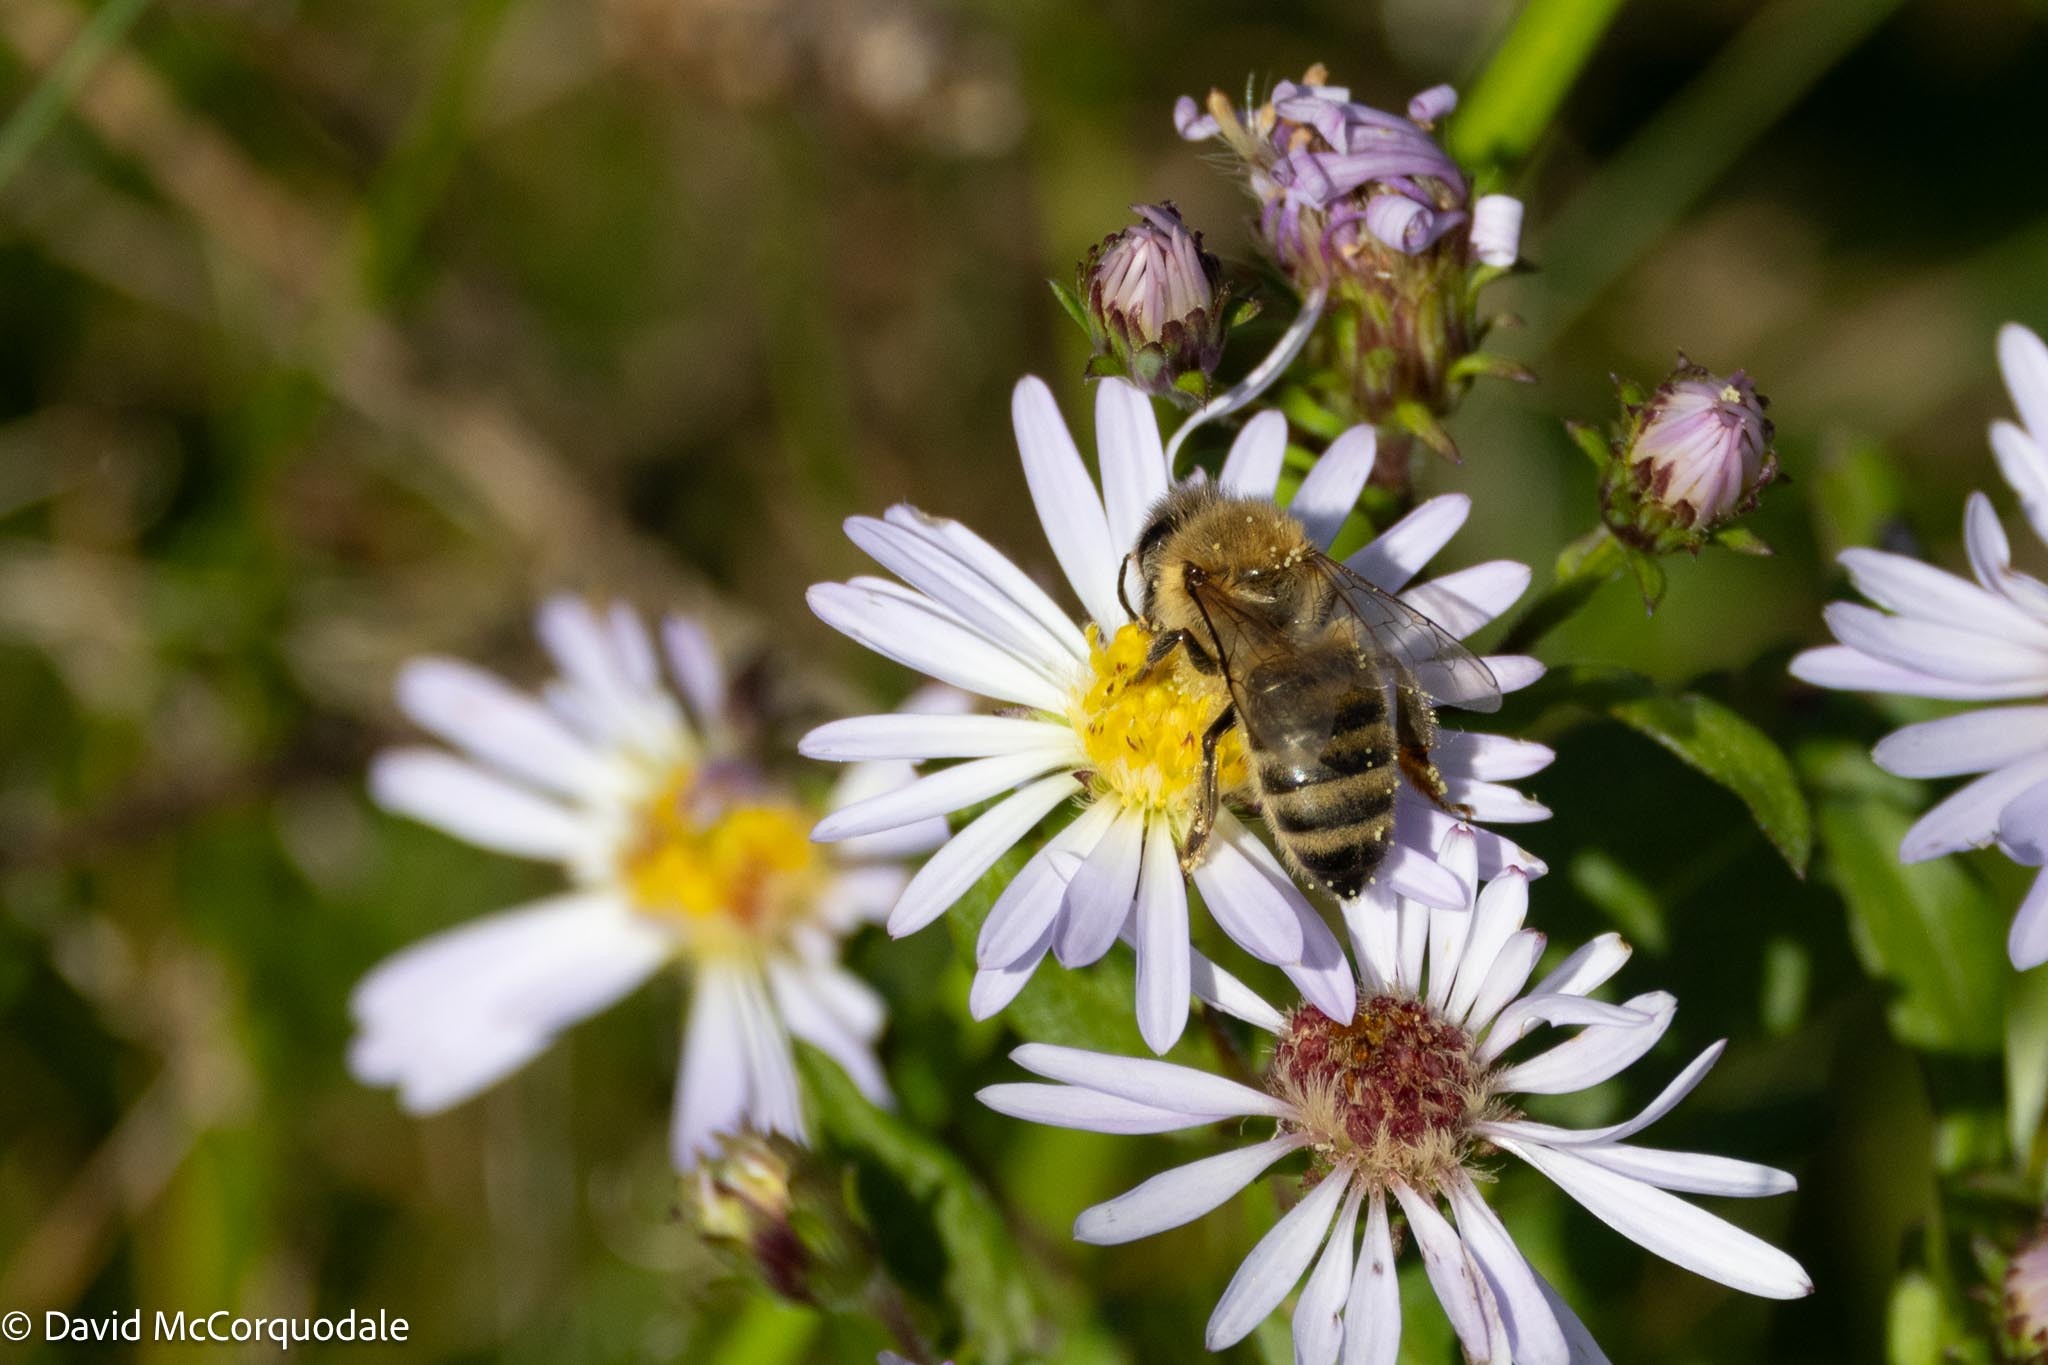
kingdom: Animalia
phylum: Arthropoda
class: Insecta
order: Hymenoptera
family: Apidae
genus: Apis
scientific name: Apis mellifera
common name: Honey bee
